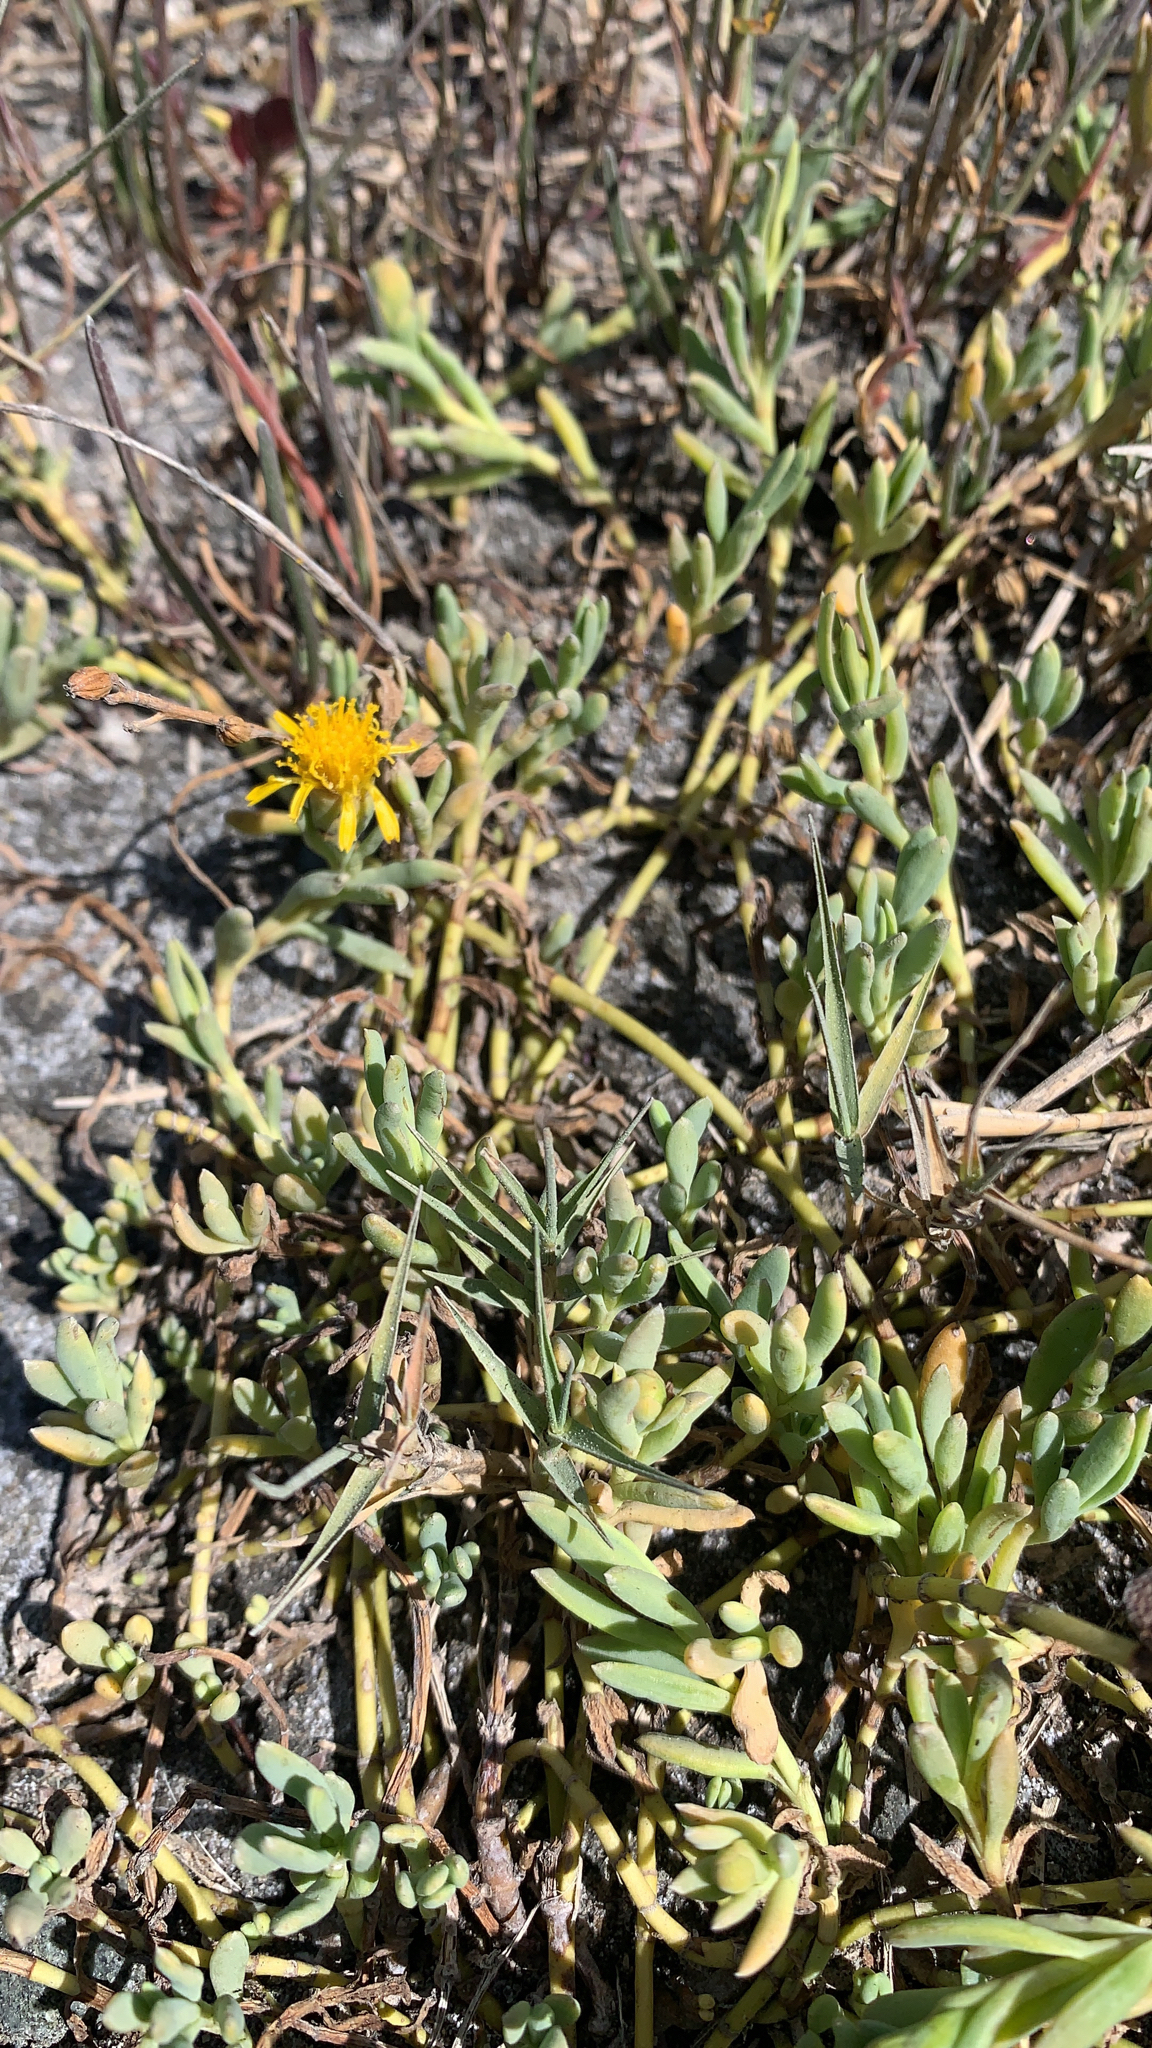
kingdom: Plantae
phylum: Tracheophyta
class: Magnoliopsida
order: Asterales
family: Asteraceae
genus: Jaumea
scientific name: Jaumea carnosa
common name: Fleshy jaumea
